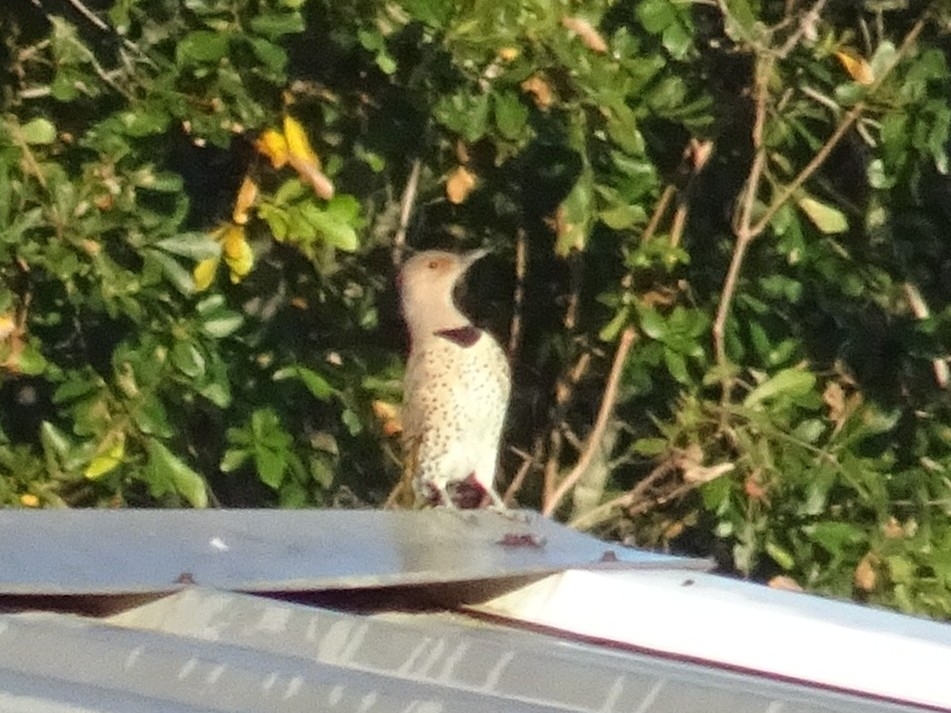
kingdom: Animalia
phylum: Chordata
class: Aves
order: Piciformes
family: Picidae
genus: Colaptes
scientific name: Colaptes auratus
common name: Northern flicker
